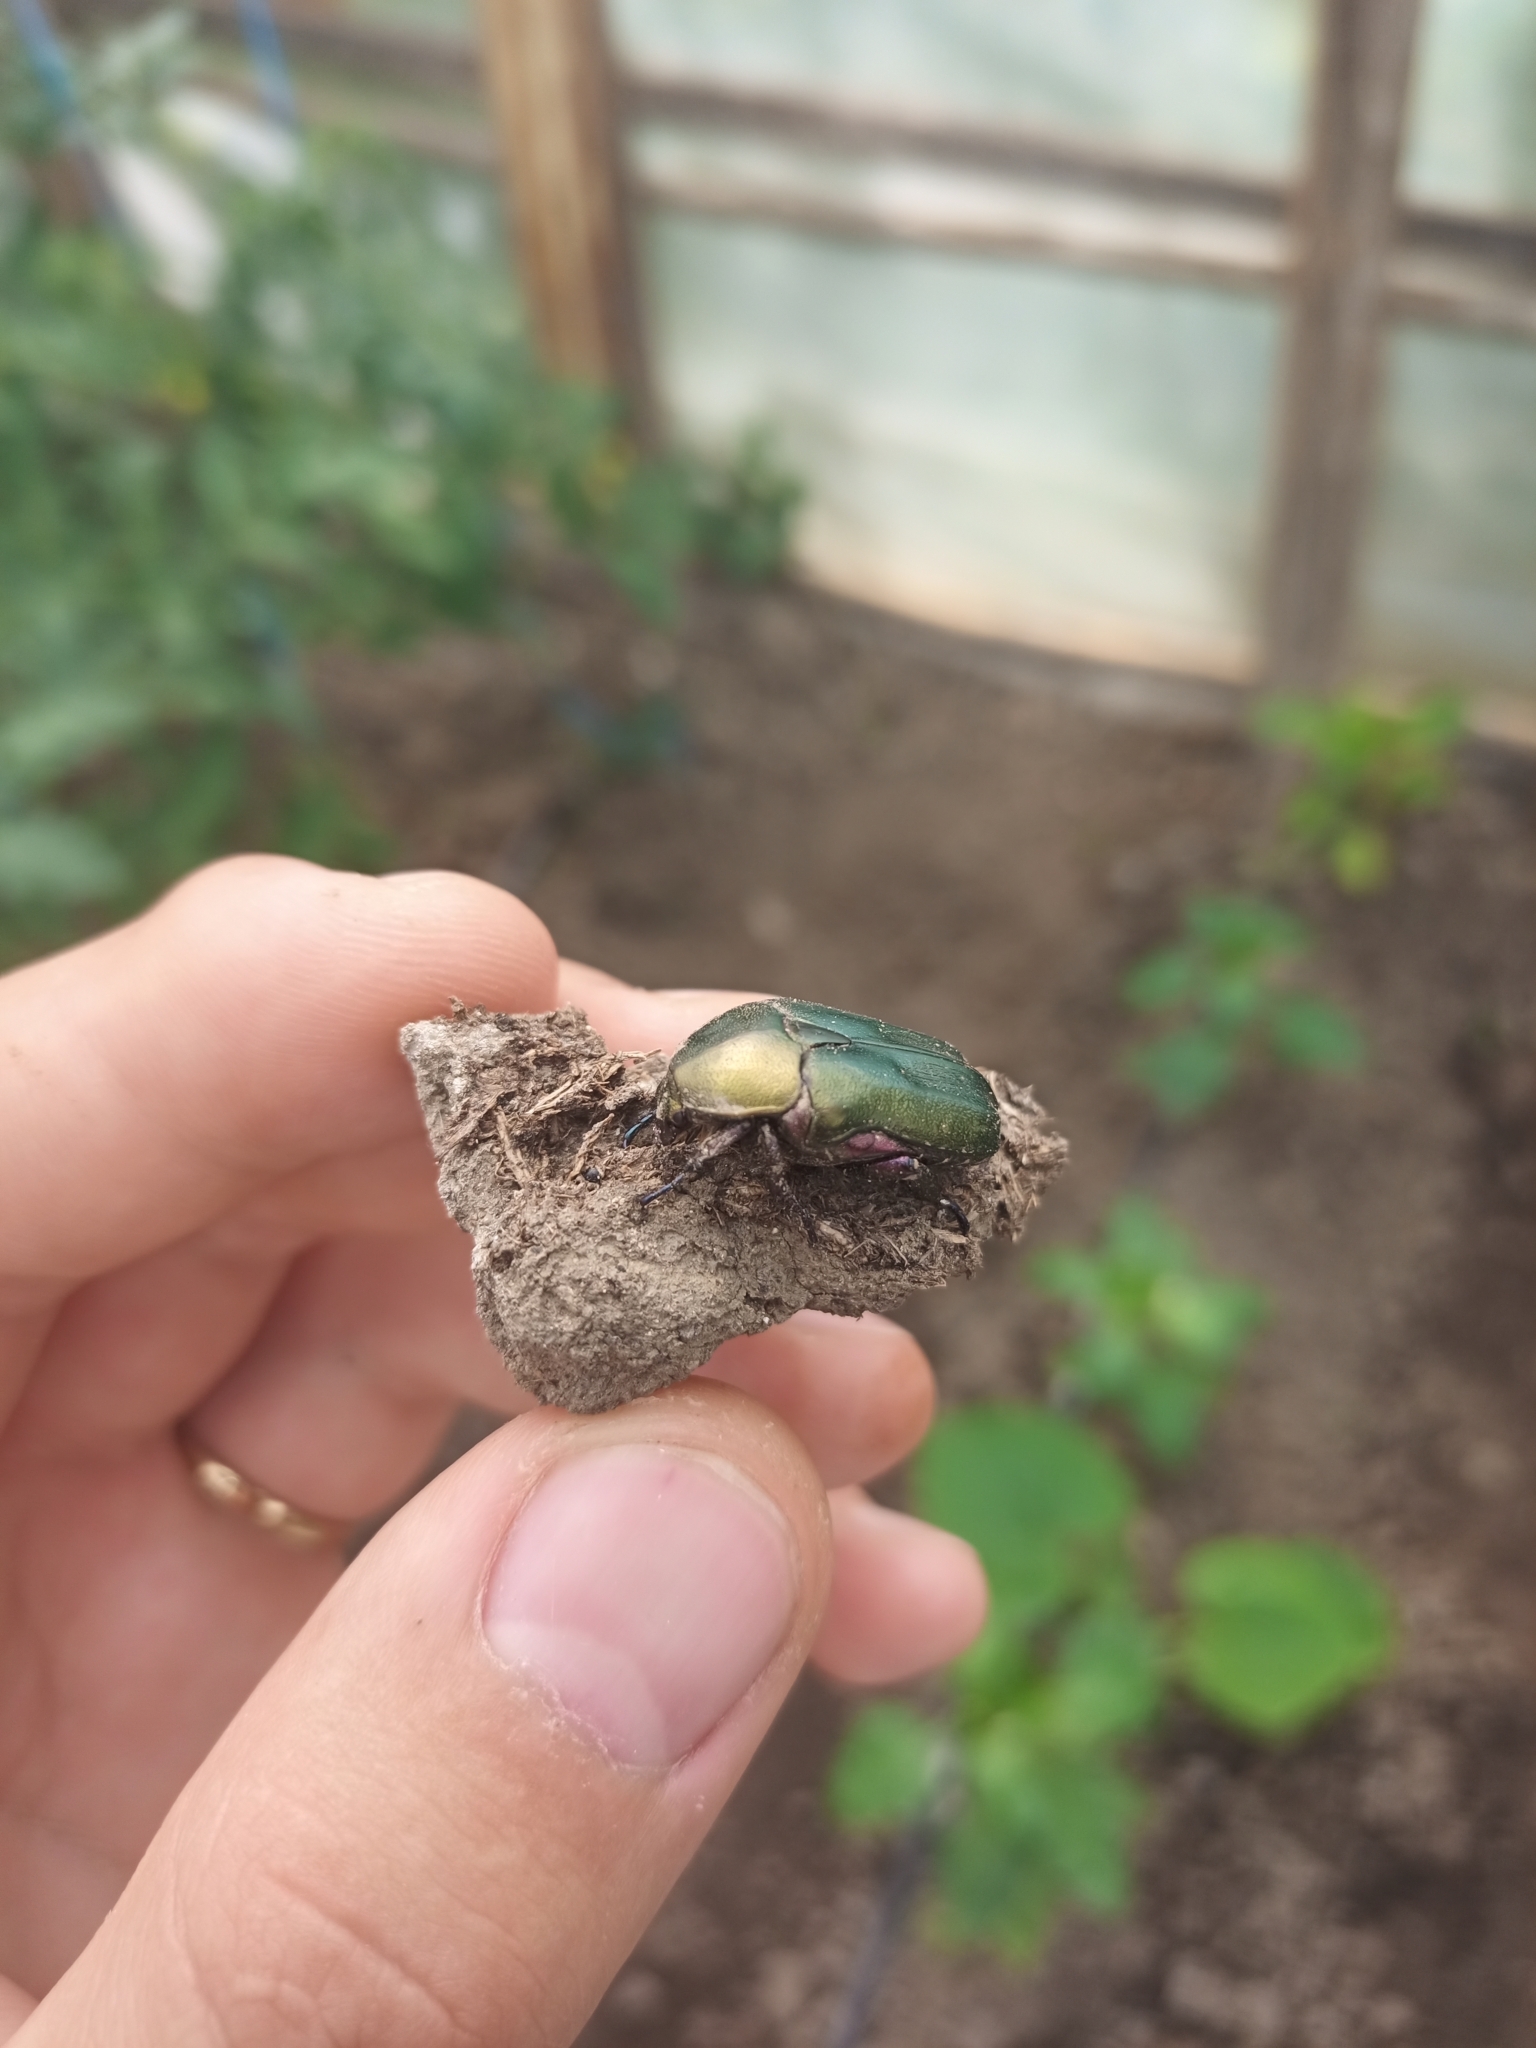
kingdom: Animalia
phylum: Arthropoda
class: Insecta
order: Coleoptera
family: Scarabaeidae
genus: Protaetia
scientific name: Protaetia cuprea
